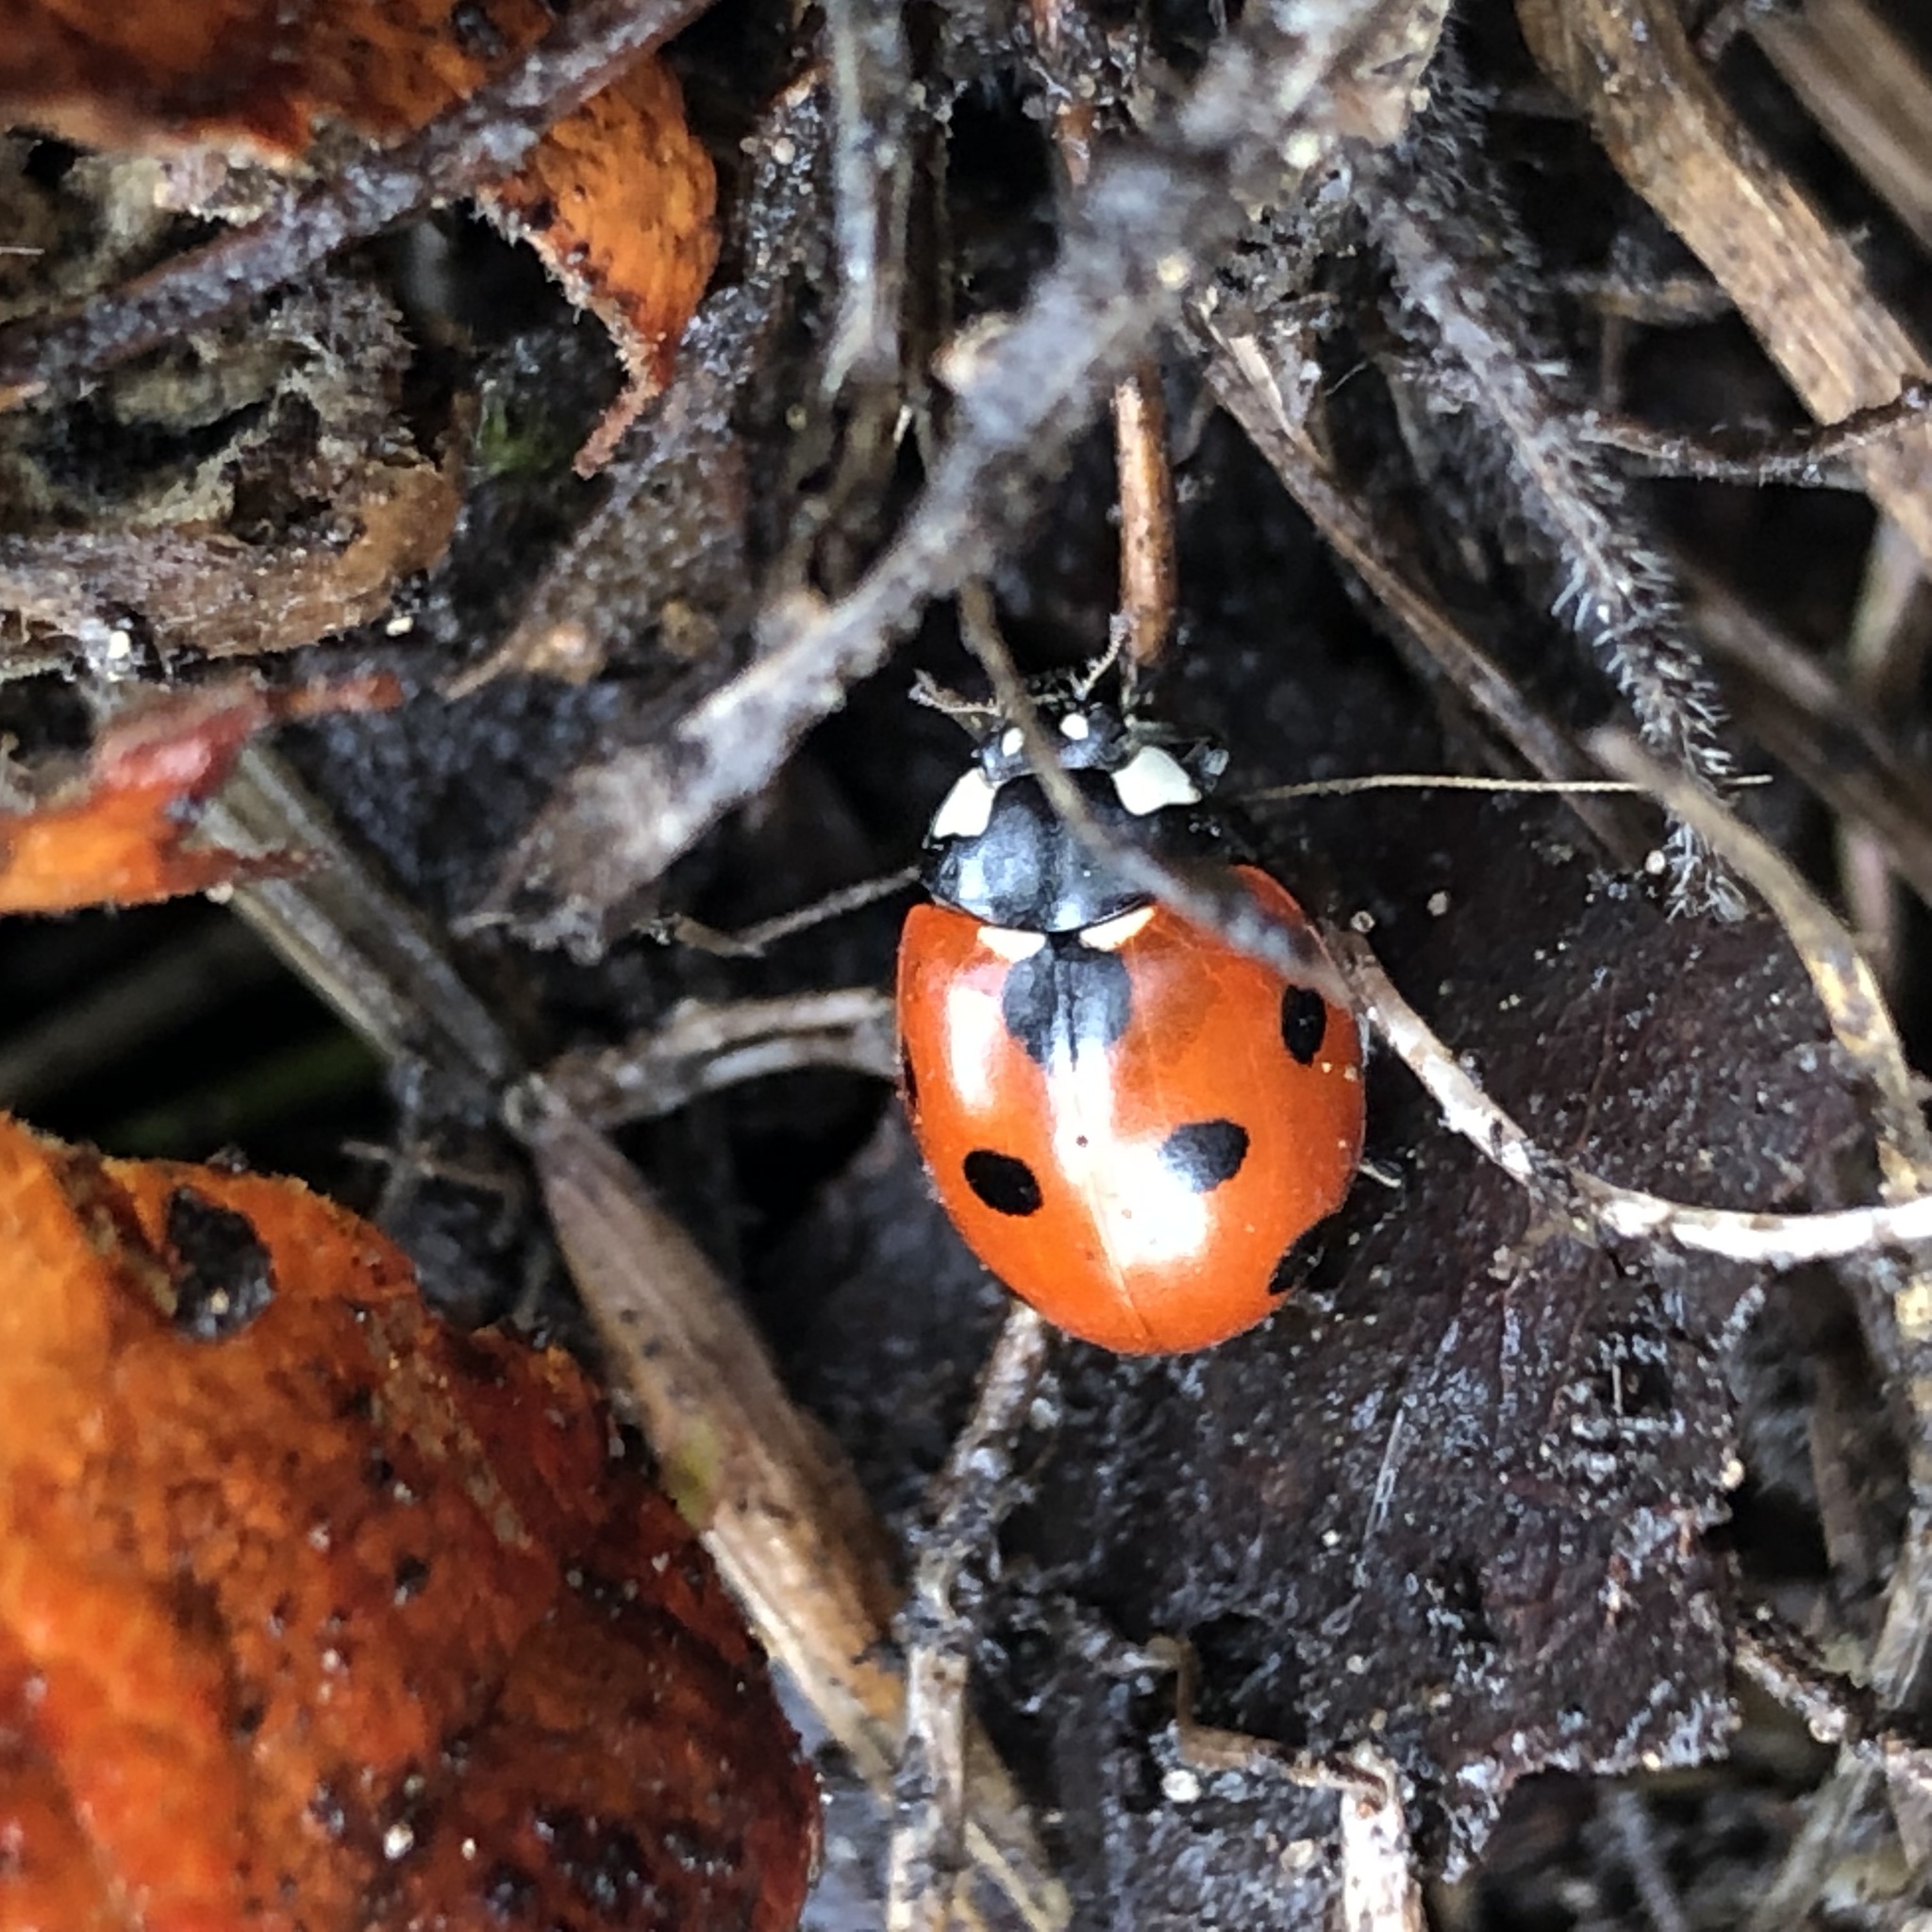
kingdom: Animalia
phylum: Arthropoda
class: Insecta
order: Coleoptera
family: Coccinellidae
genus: Coccinella
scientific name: Coccinella septempunctata
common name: Sevenspotted lady beetle
